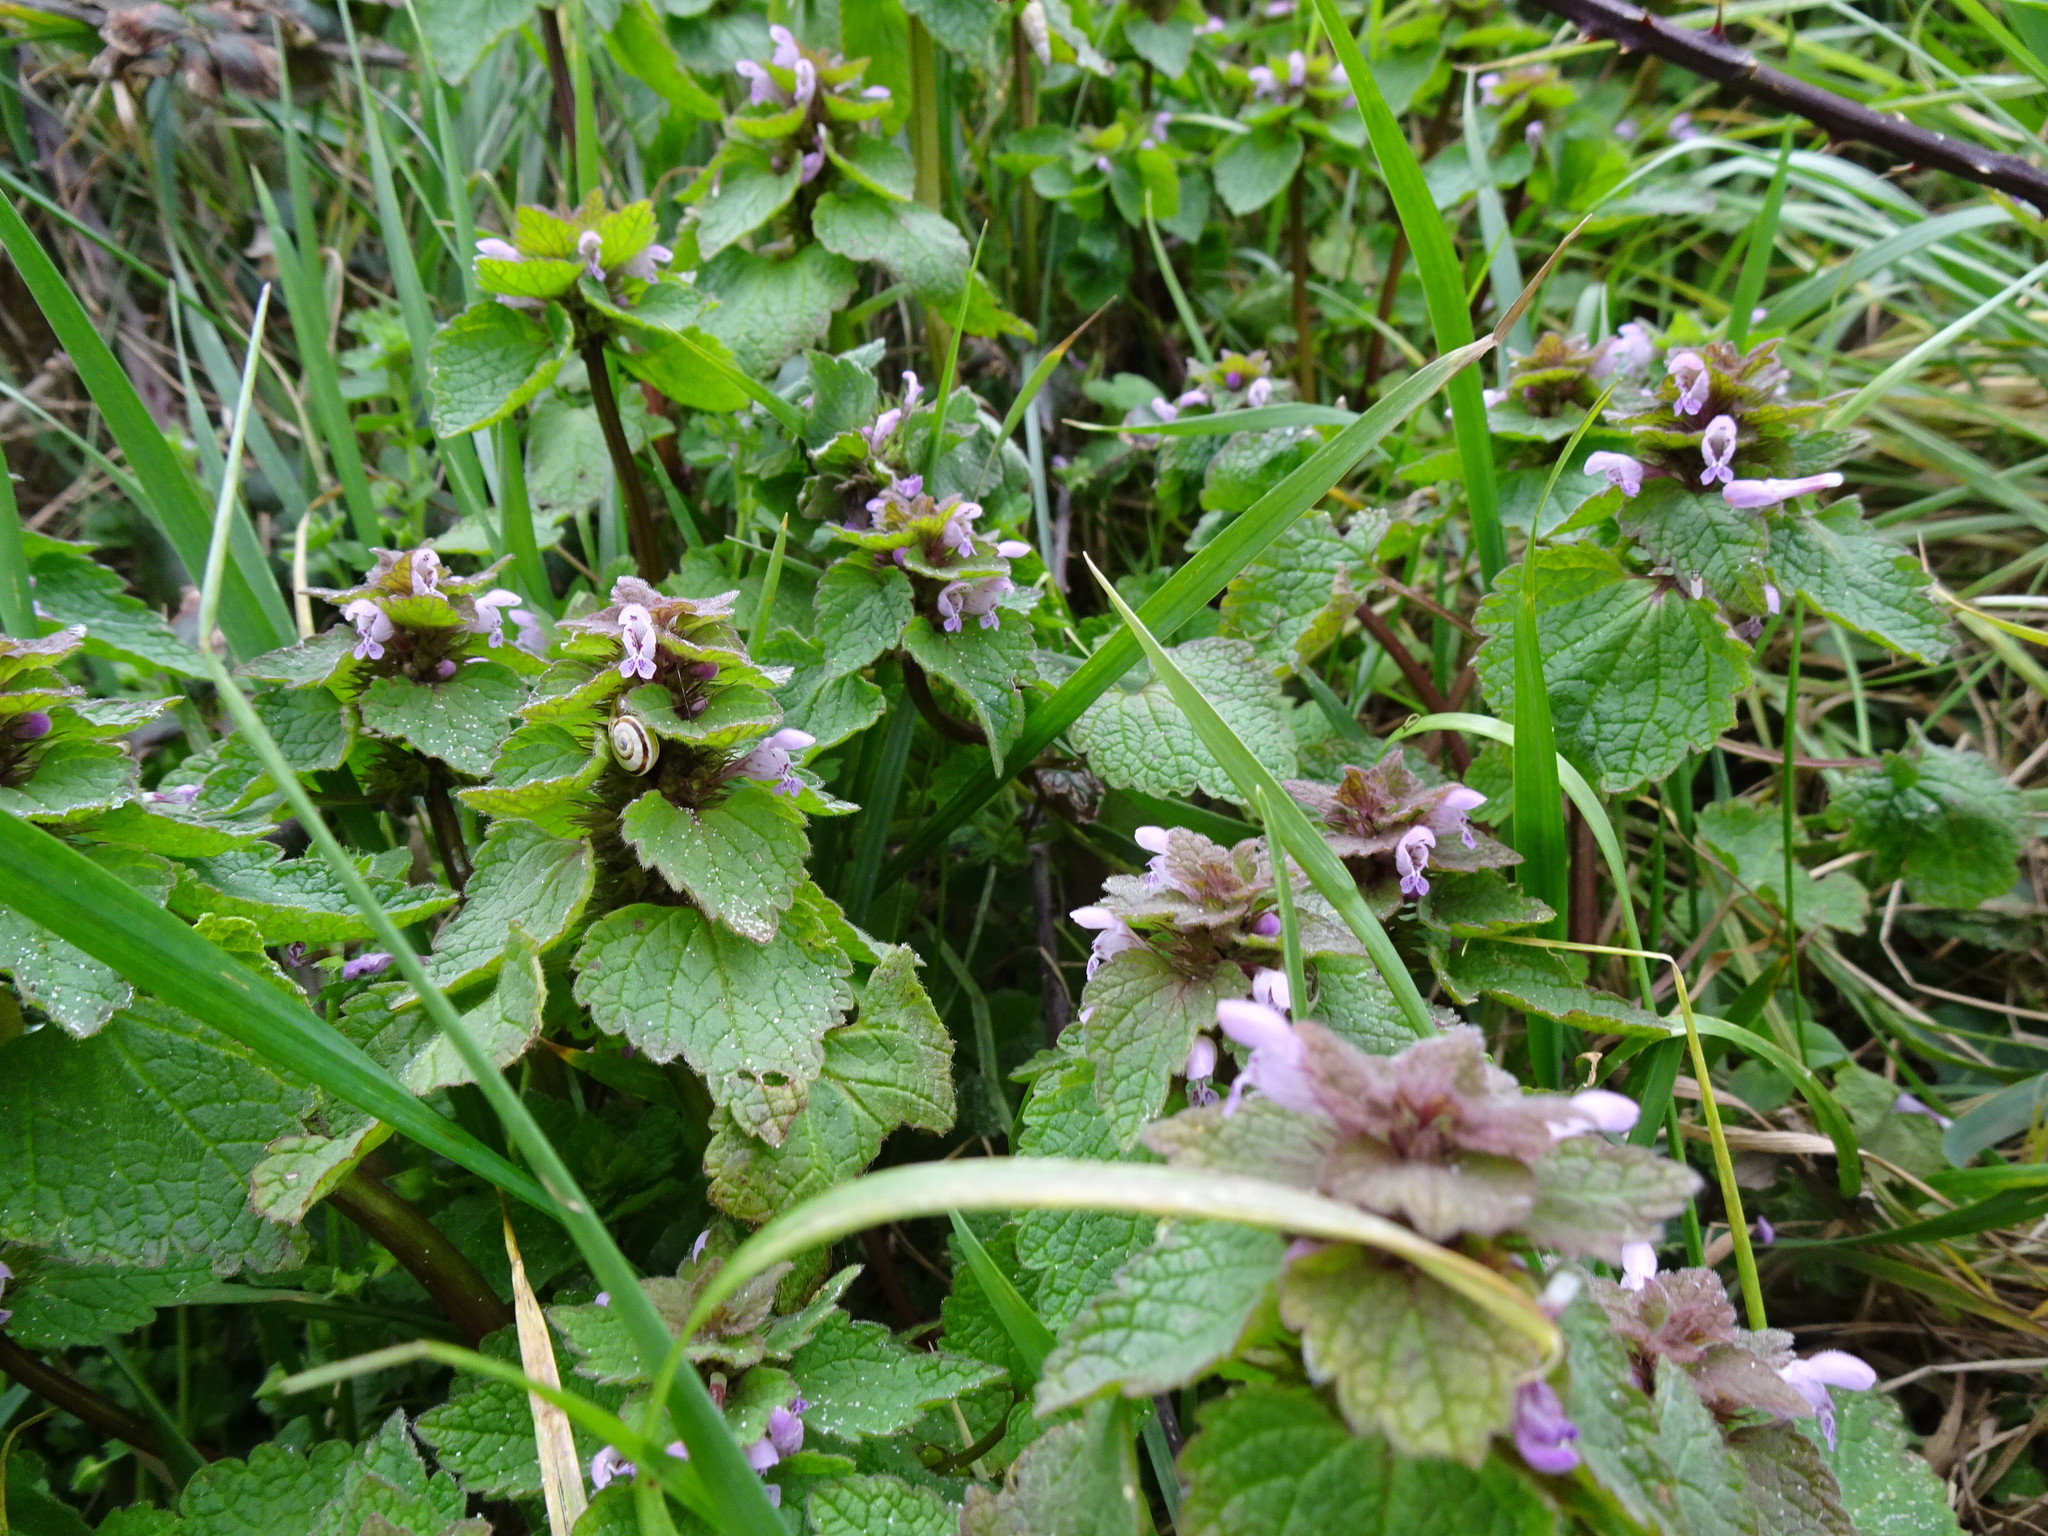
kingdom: Plantae
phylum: Tracheophyta
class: Magnoliopsida
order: Lamiales
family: Lamiaceae
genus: Lamium
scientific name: Lamium purpureum
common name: Red dead-nettle
